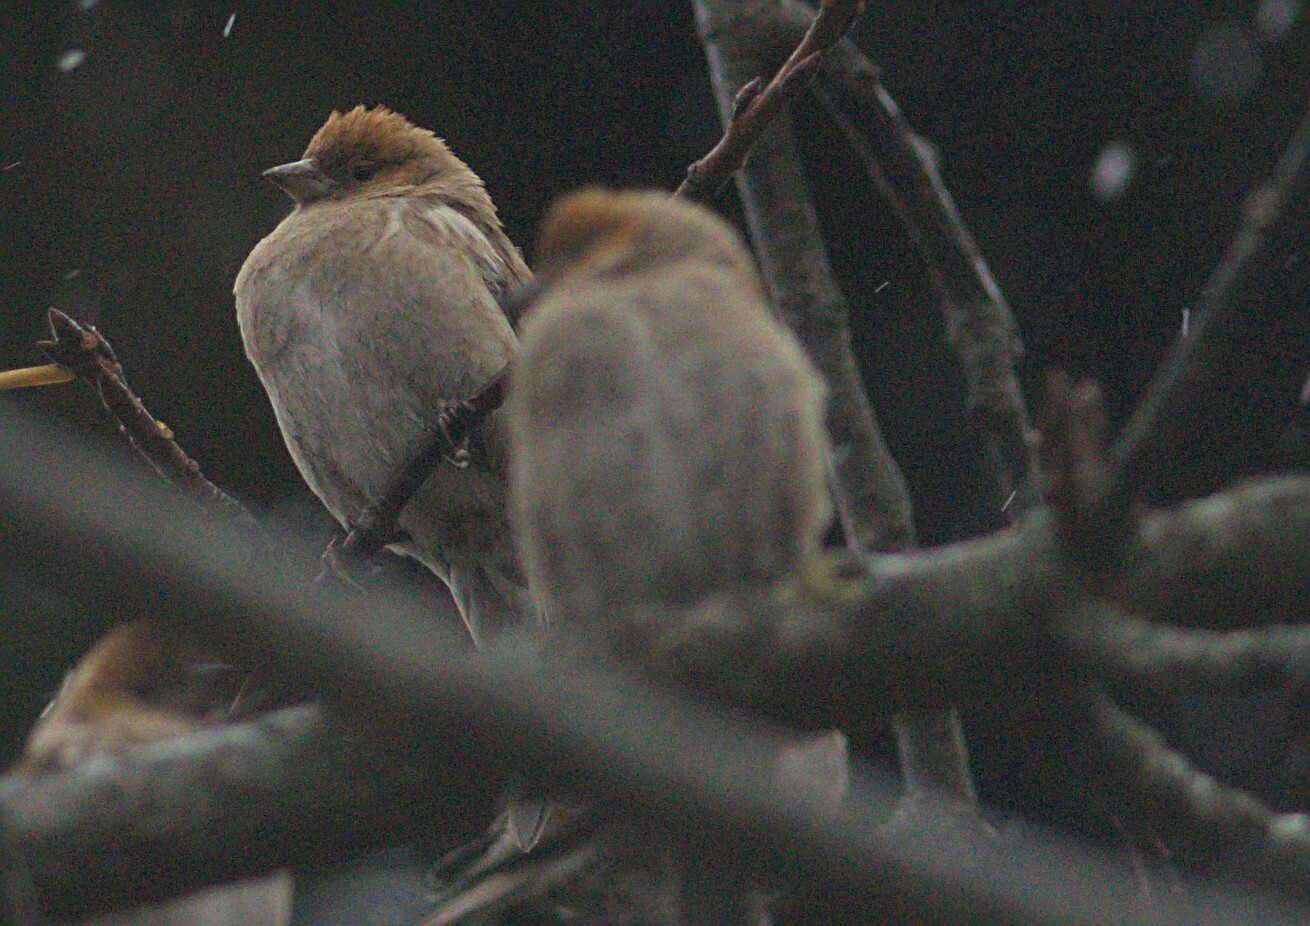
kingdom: Animalia
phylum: Chordata
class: Aves
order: Passeriformes
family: Fringillidae
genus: Leucosticte
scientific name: Leucosticte nemoricola
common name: Plain mountain finch
